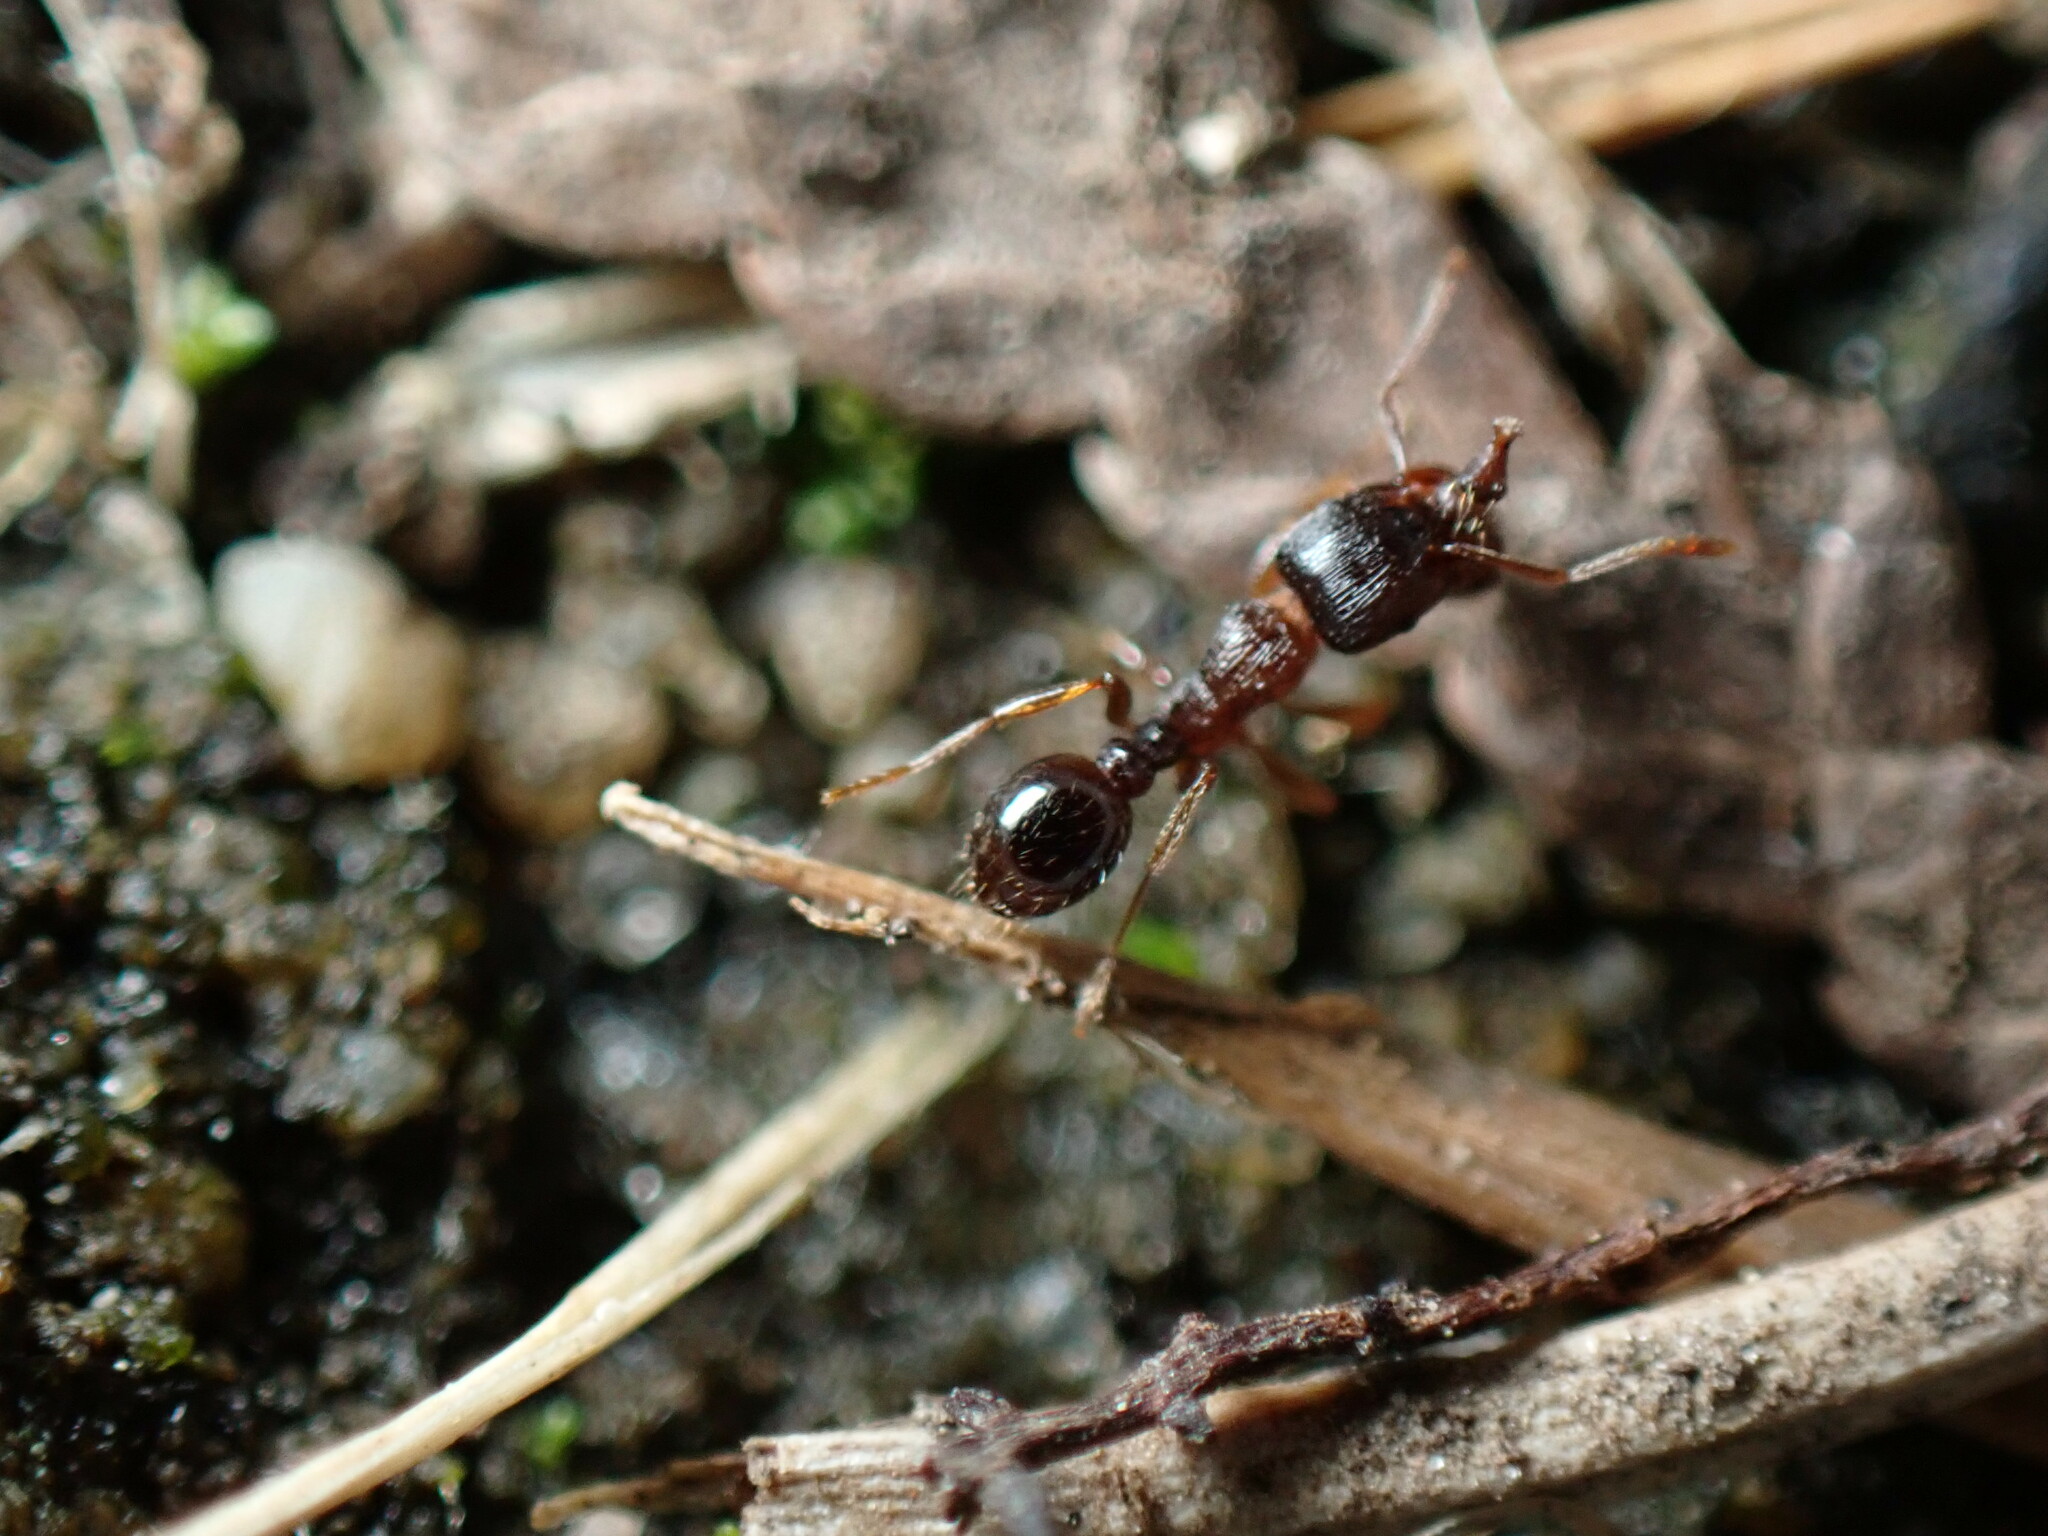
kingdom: Animalia
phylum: Arthropoda
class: Insecta
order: Hymenoptera
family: Formicidae
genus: Tetramorium
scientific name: Tetramorium immigrans
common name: Pavement ant
